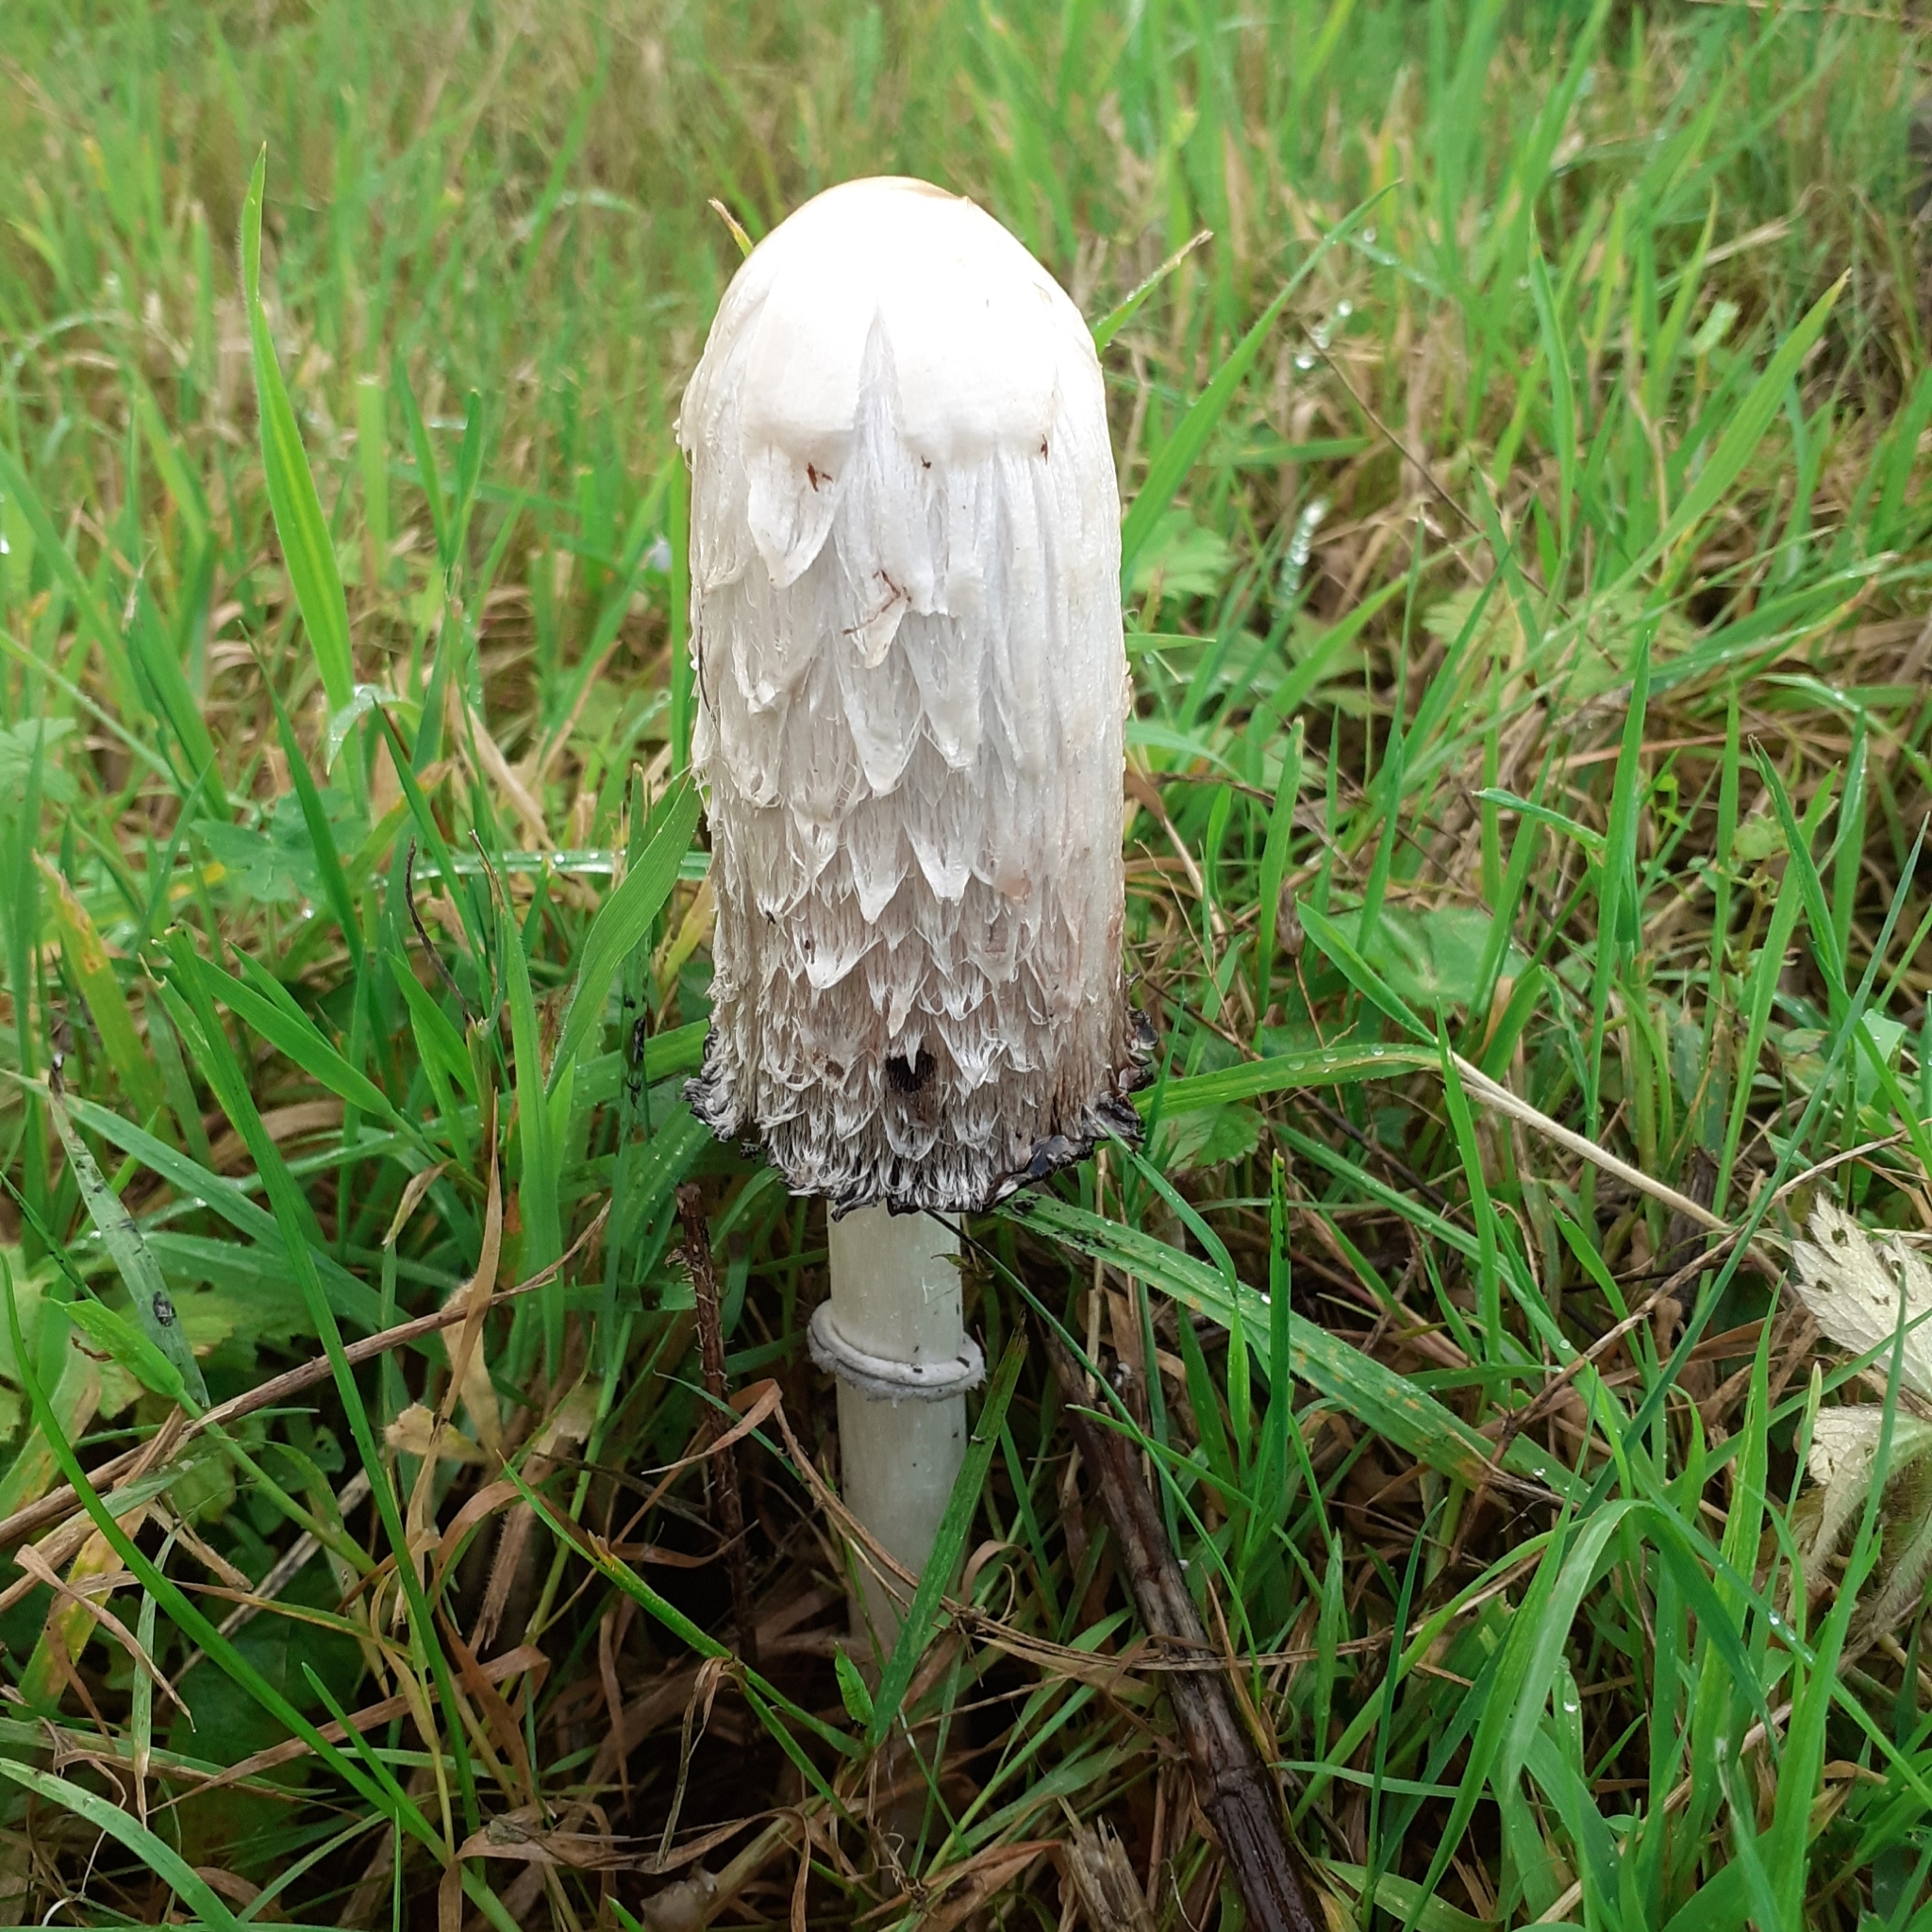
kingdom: Fungi
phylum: Basidiomycota
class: Agaricomycetes
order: Agaricales
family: Agaricaceae
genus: Coprinus
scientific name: Coprinus comatus
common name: Lawyer's wig
